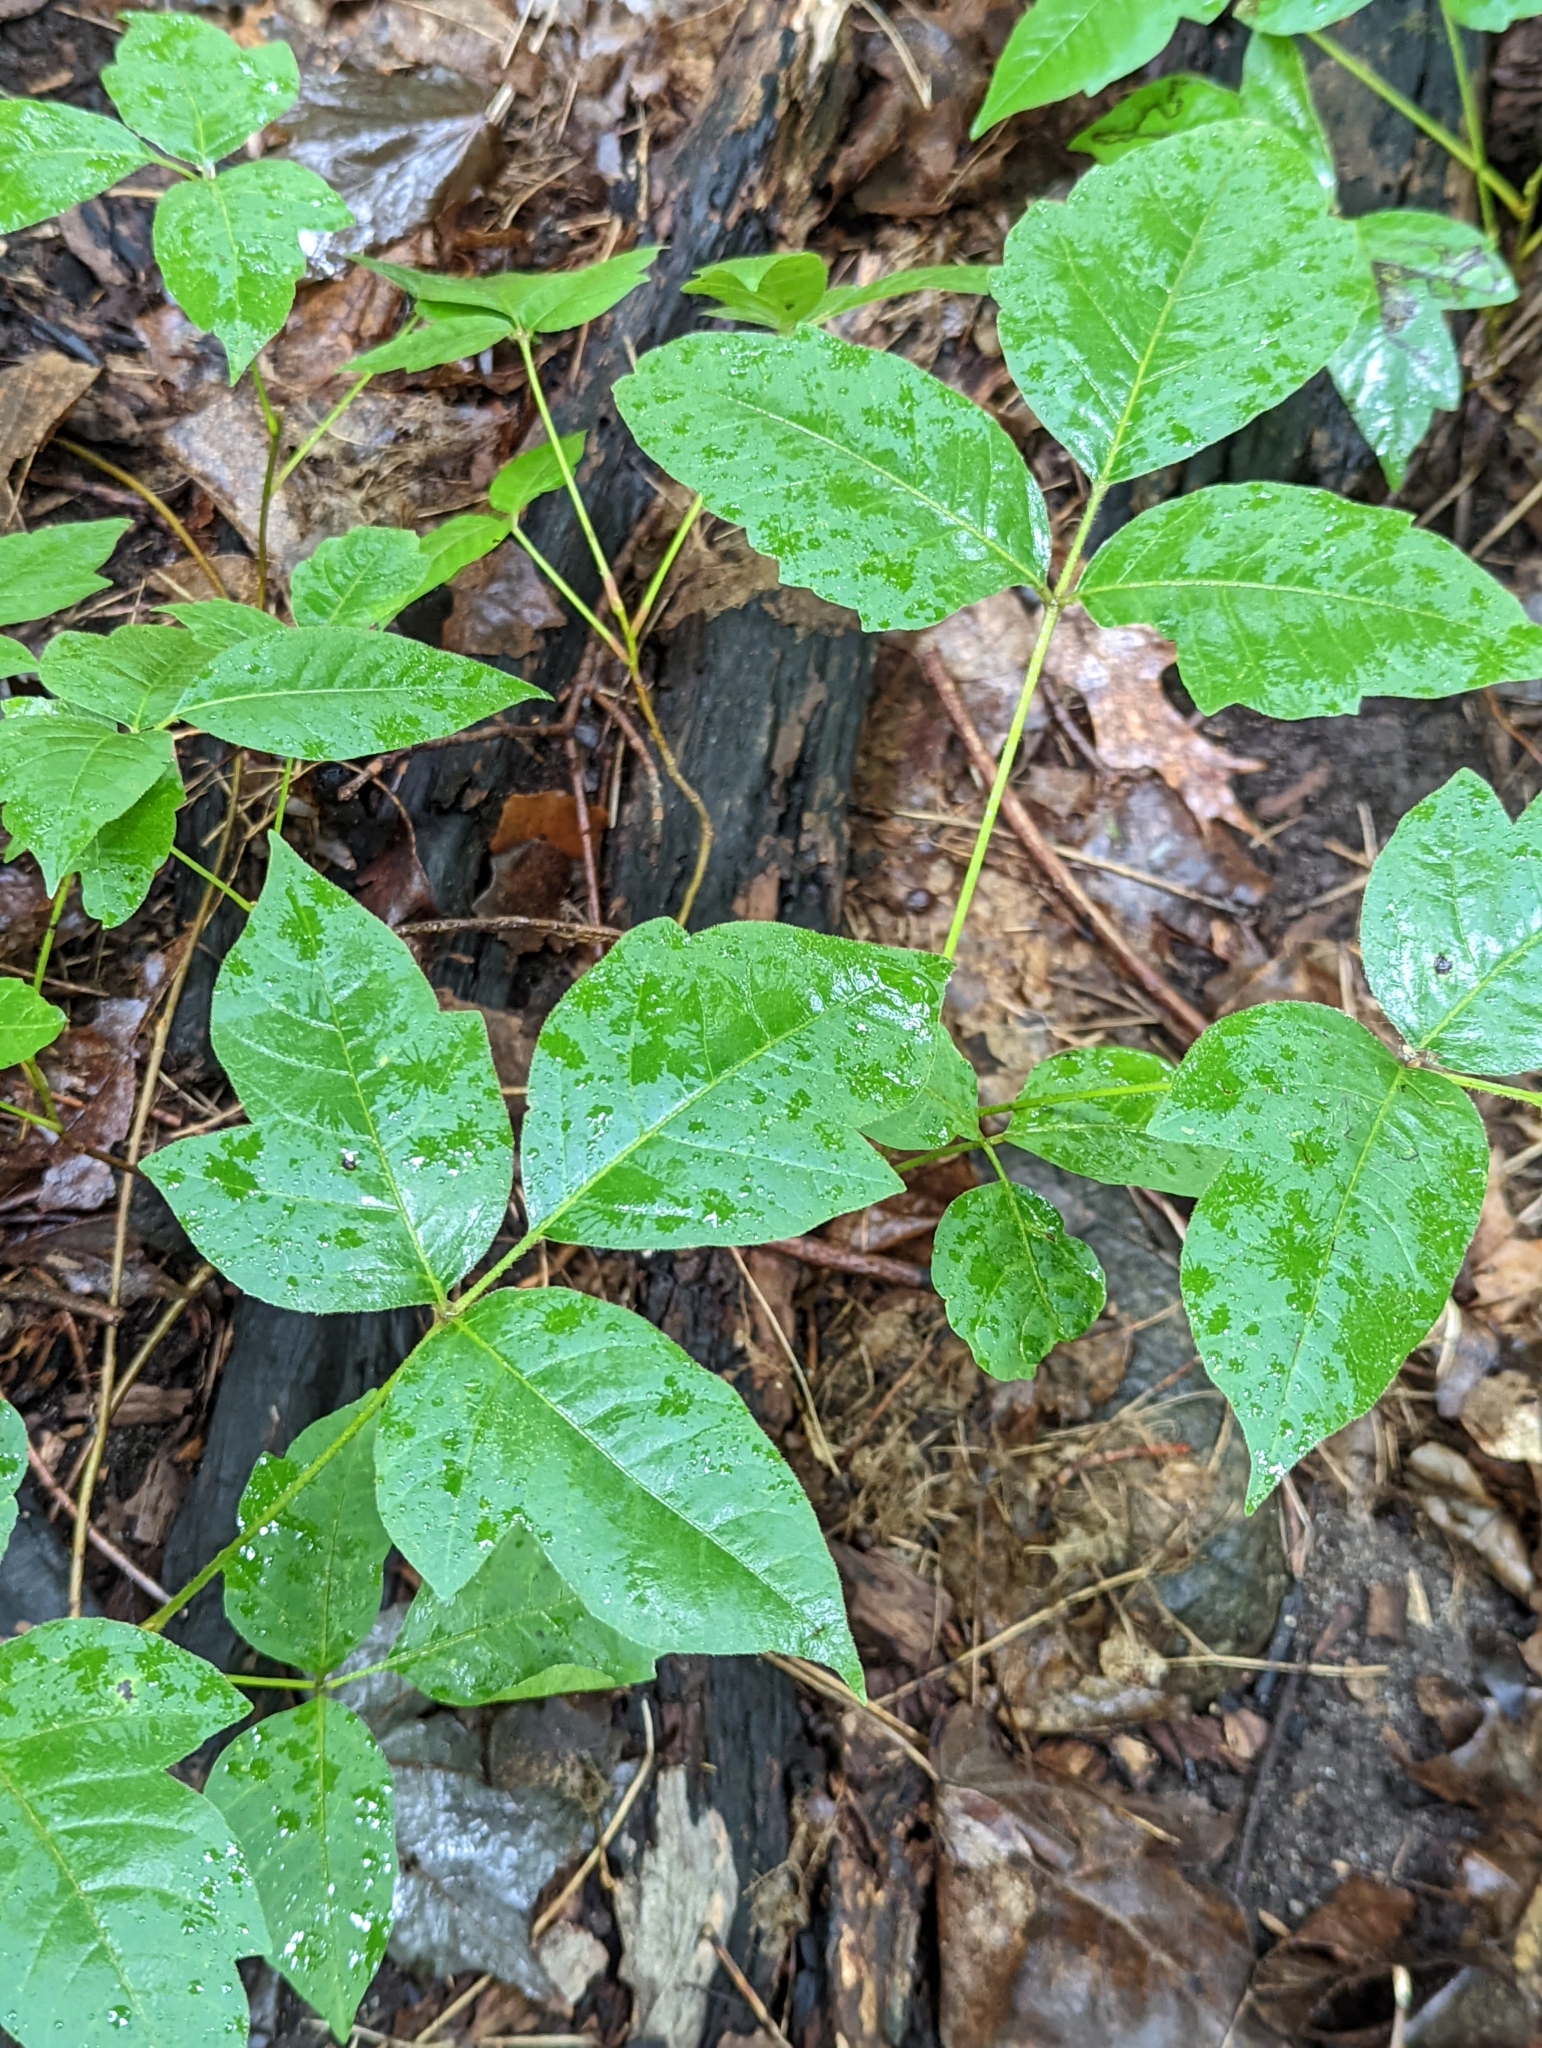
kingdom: Plantae
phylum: Tracheophyta
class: Magnoliopsida
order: Sapindales
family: Anacardiaceae
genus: Toxicodendron
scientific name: Toxicodendron radicans
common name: Poison ivy
